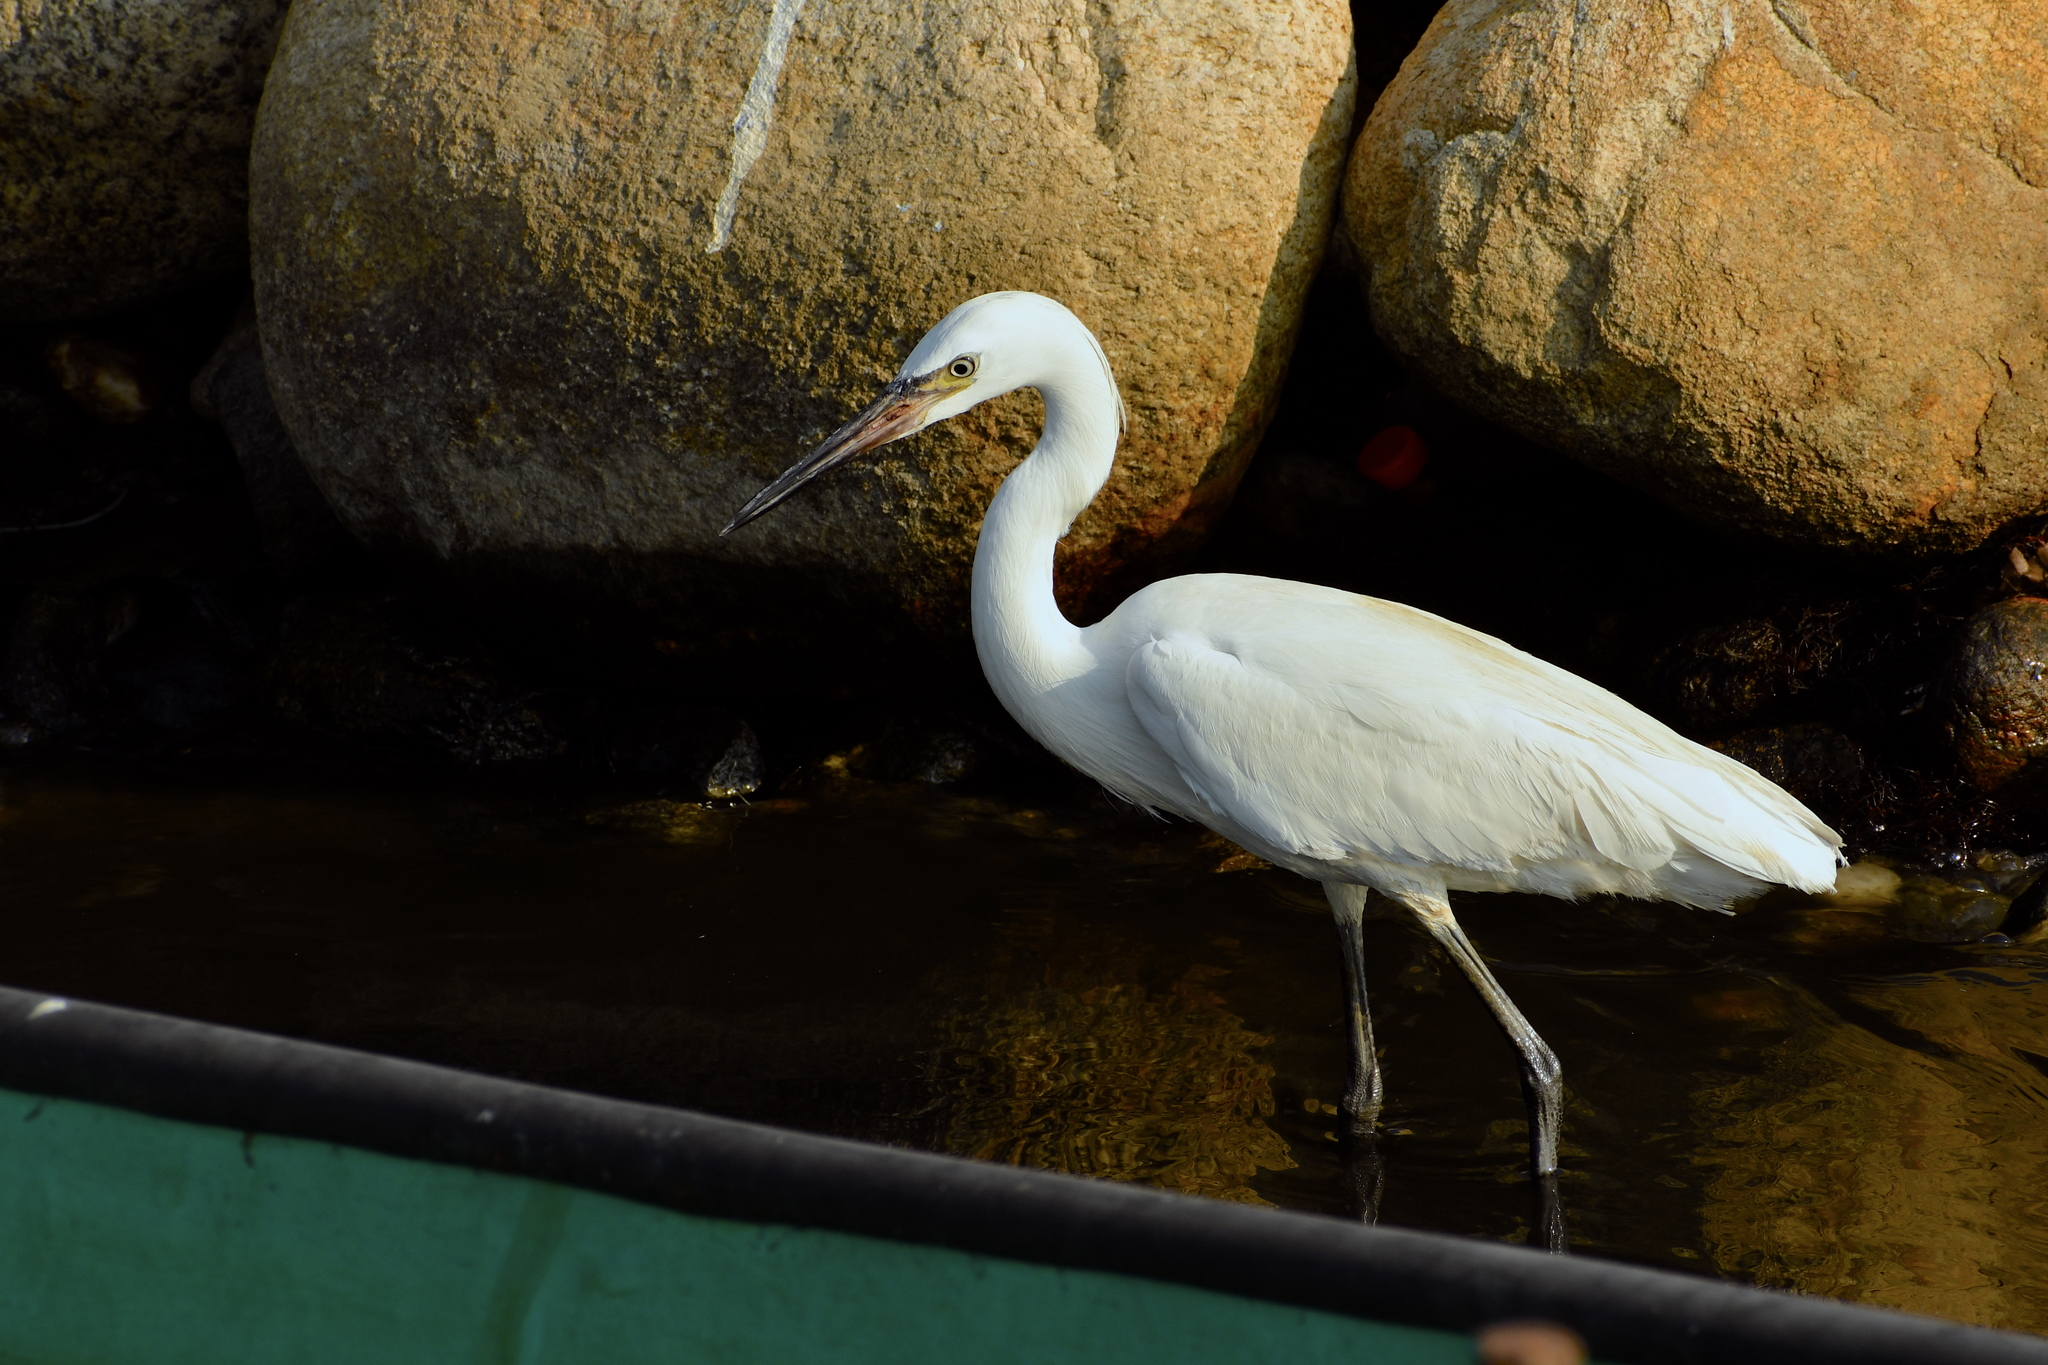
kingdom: Animalia
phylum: Chordata
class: Aves
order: Pelecaniformes
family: Ardeidae
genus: Egretta
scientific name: Egretta rufescens
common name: Reddish egret
